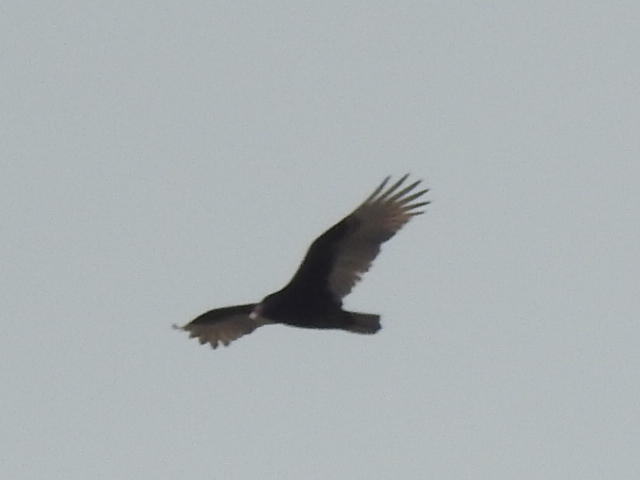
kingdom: Animalia
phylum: Chordata
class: Aves
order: Accipitriformes
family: Cathartidae
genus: Cathartes
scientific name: Cathartes aura
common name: Turkey vulture
